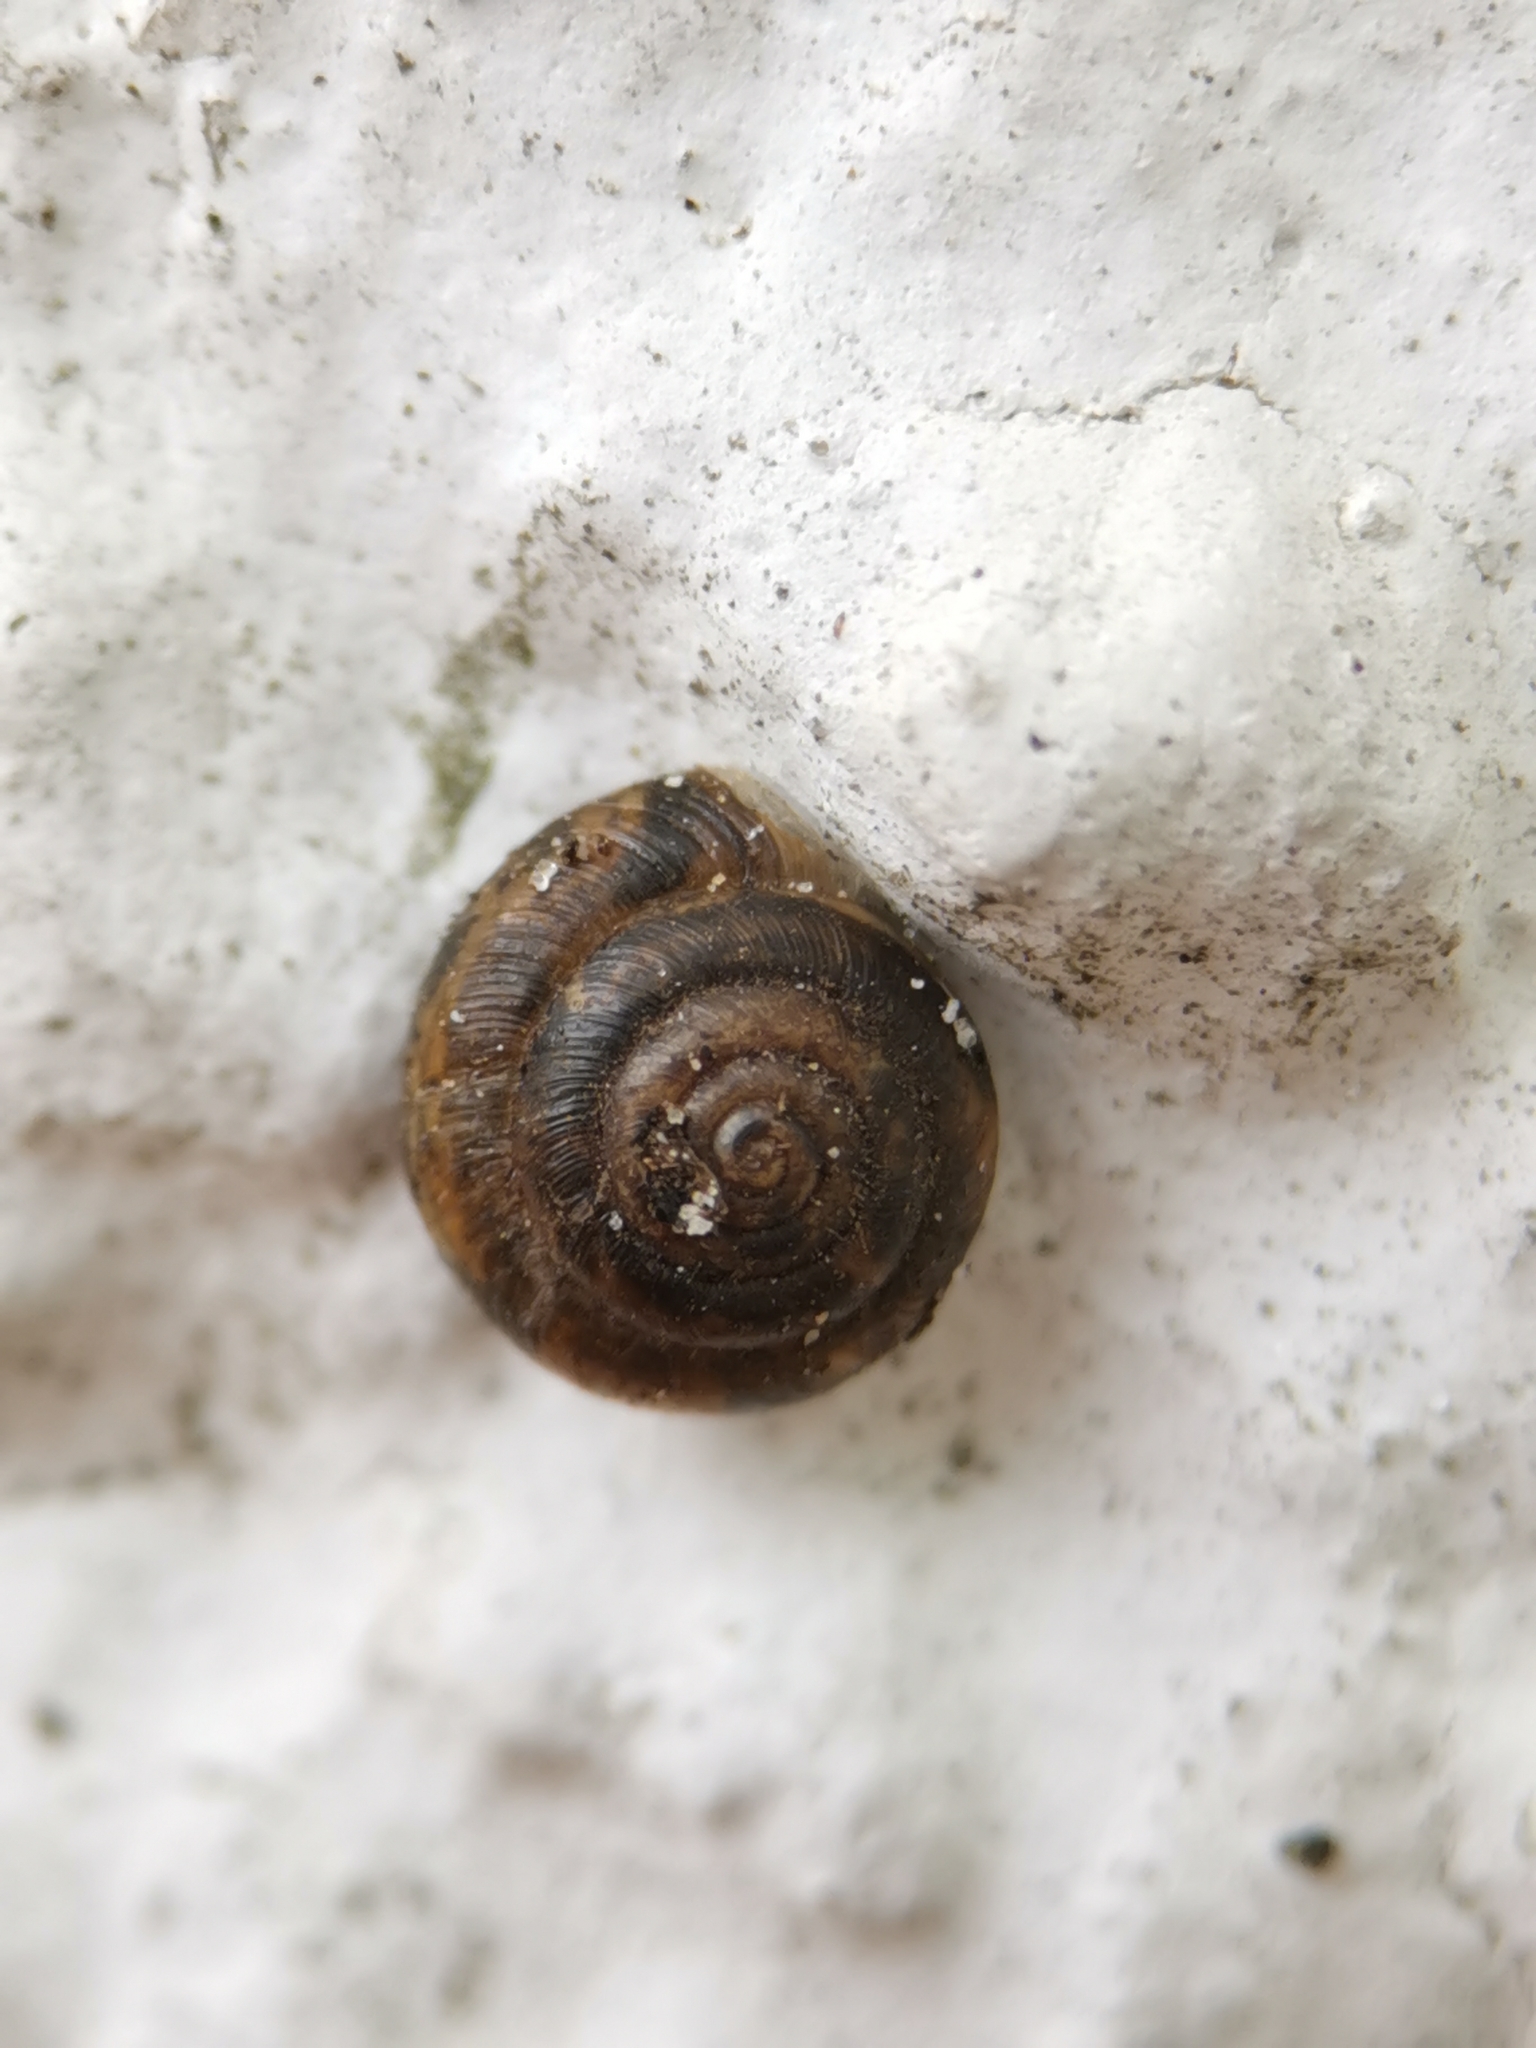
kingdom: Animalia
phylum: Mollusca
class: Gastropoda
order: Stylommatophora
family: Hygromiidae
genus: Trochulus
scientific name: Trochulus hispidus
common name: Hairy snail
